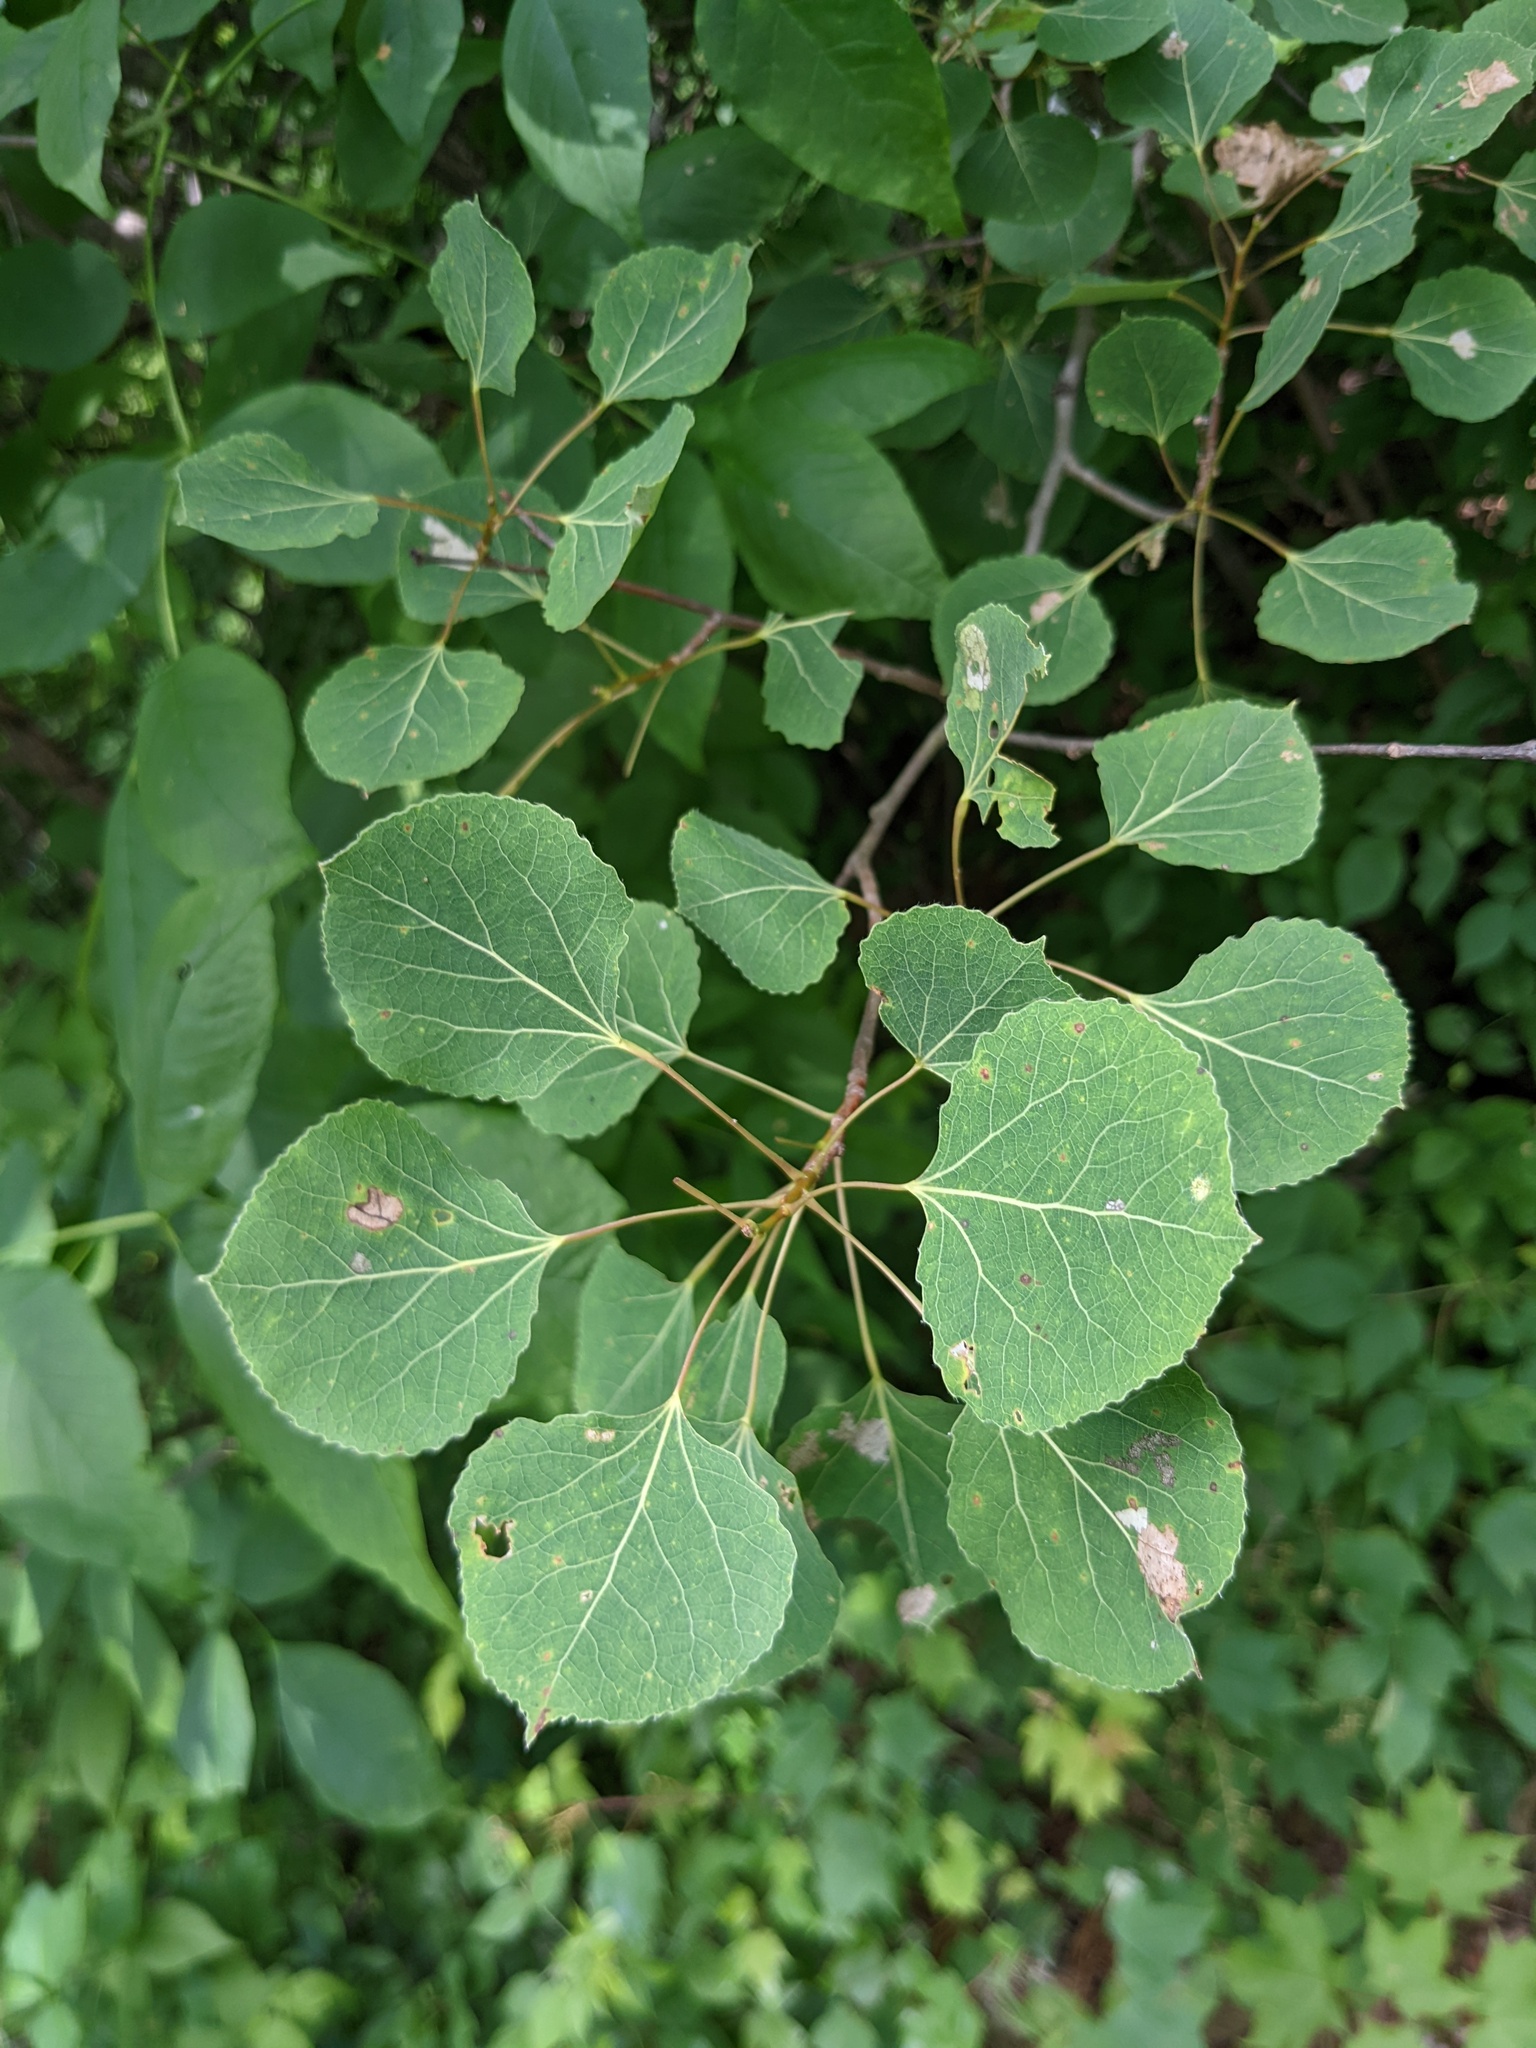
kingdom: Plantae
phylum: Tracheophyta
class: Magnoliopsida
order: Malpighiales
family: Salicaceae
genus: Populus
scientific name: Populus tremuloides
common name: Quaking aspen
